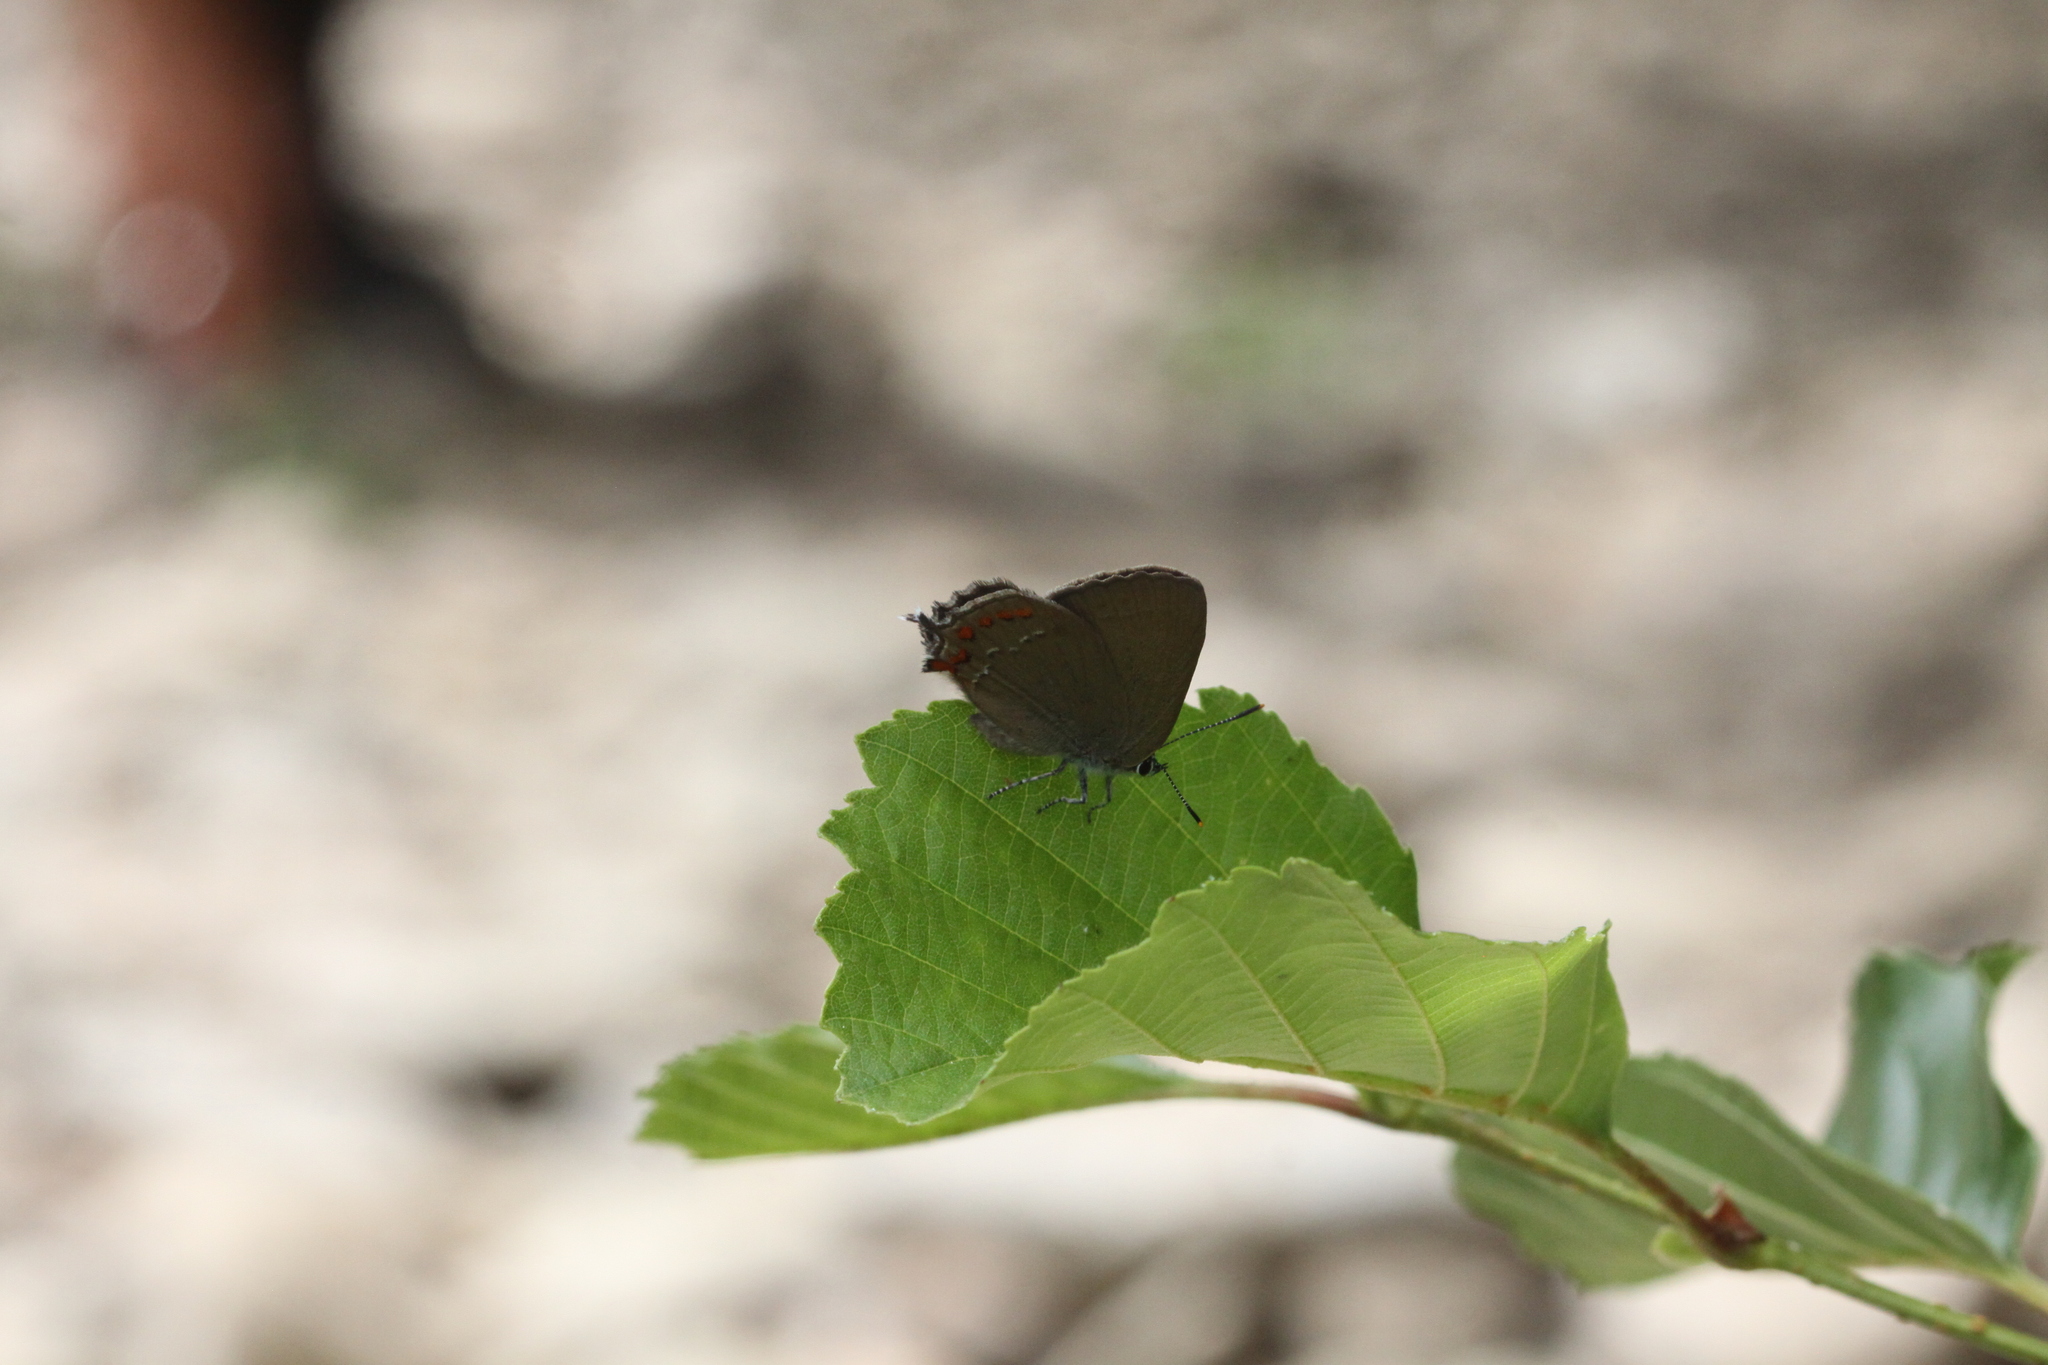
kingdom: Animalia
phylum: Arthropoda
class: Insecta
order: Lepidoptera
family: Lycaenidae
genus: Fixsenia
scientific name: Fixsenia esculi
